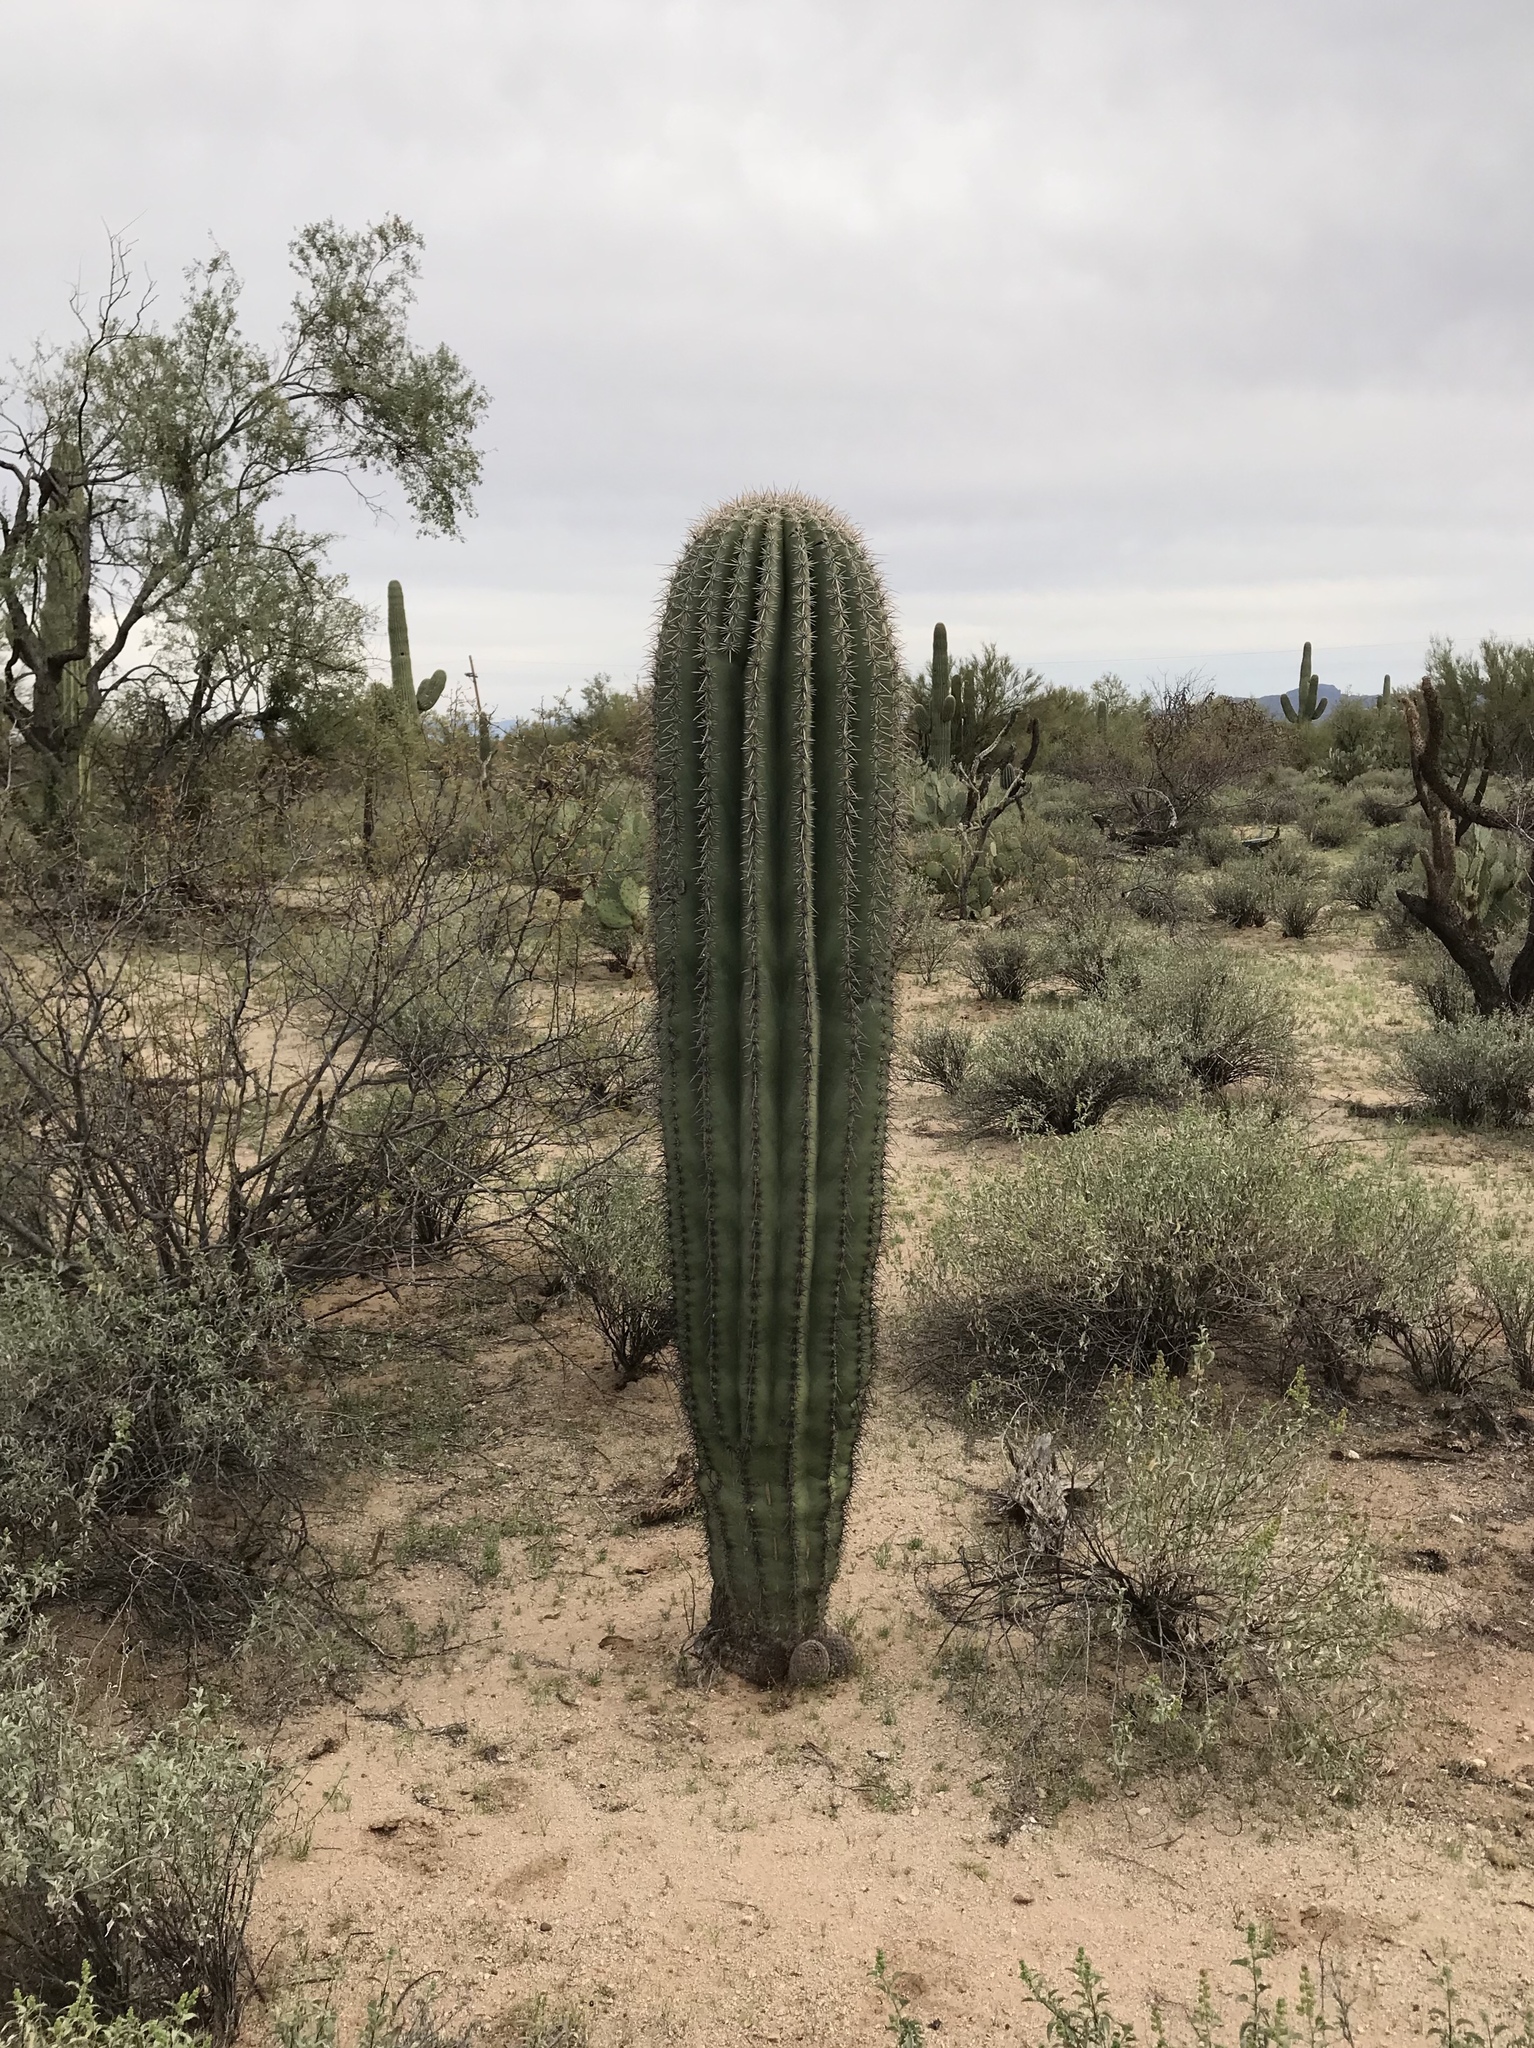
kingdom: Plantae
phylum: Tracheophyta
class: Magnoliopsida
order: Caryophyllales
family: Cactaceae
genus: Carnegiea
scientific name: Carnegiea gigantea
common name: Saguaro
